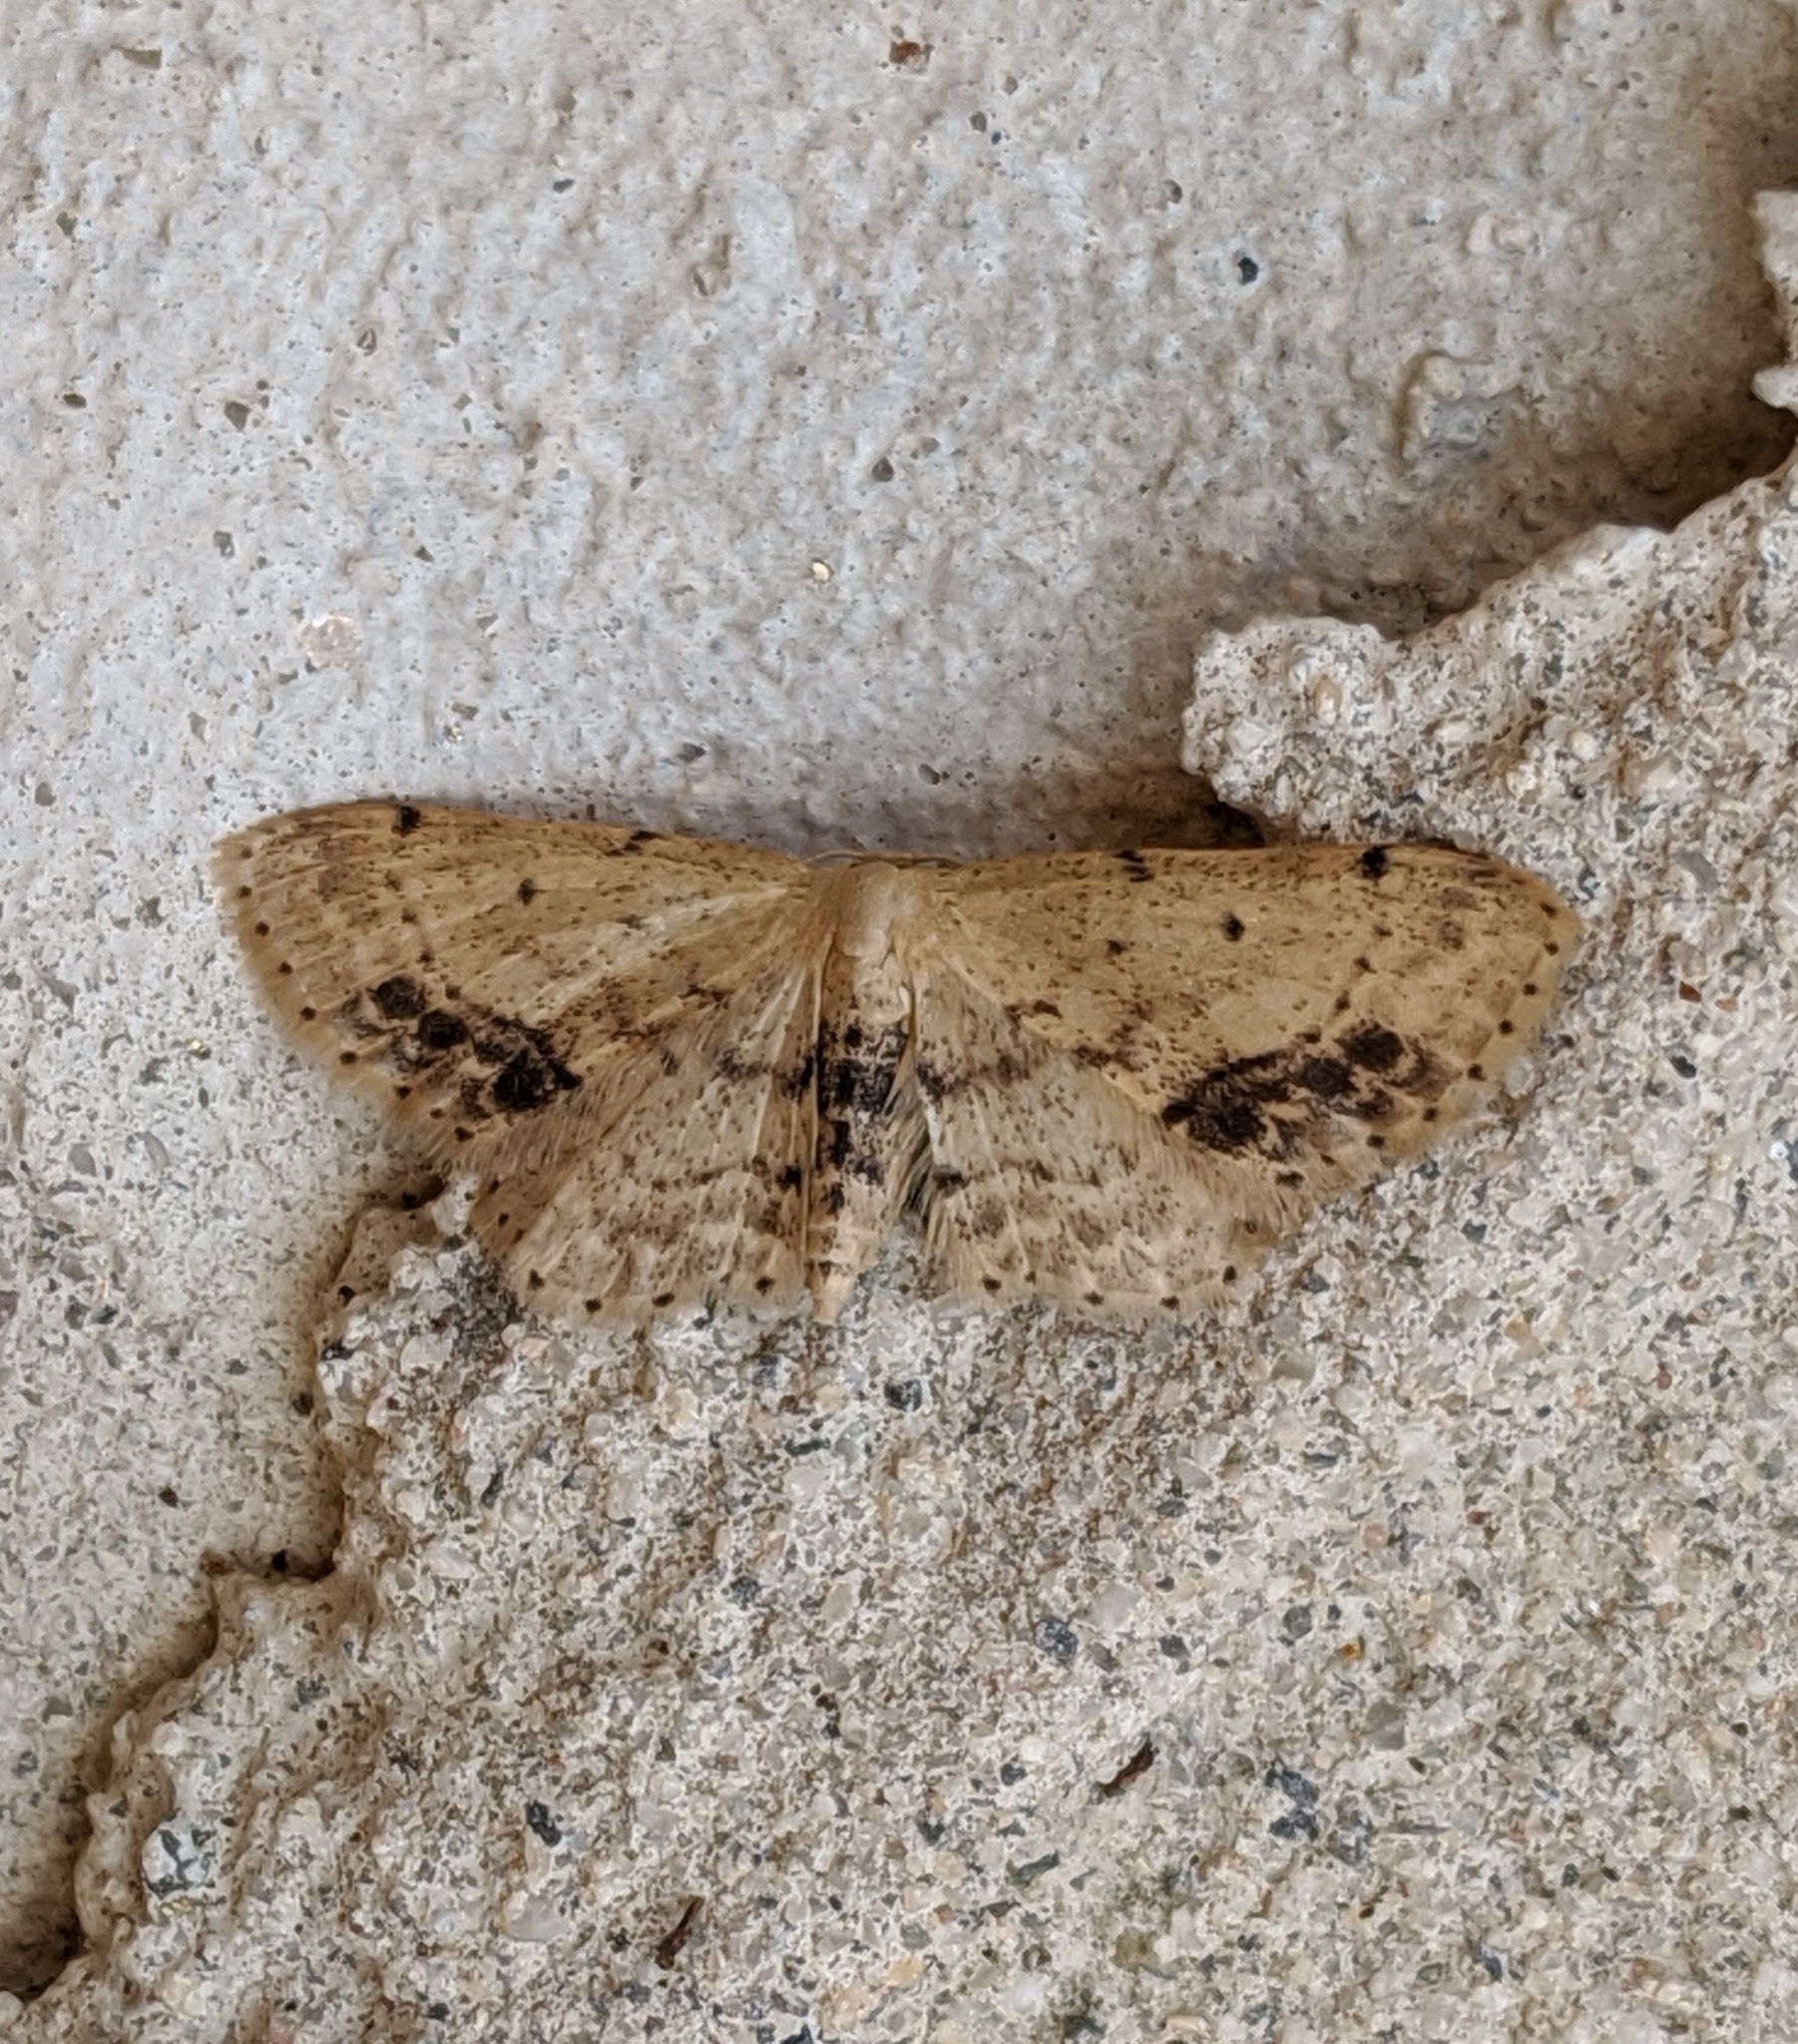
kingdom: Animalia
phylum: Arthropoda
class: Insecta
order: Lepidoptera
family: Geometridae
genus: Idaea
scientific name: Idaea dimidiata
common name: Single-dotted wave
